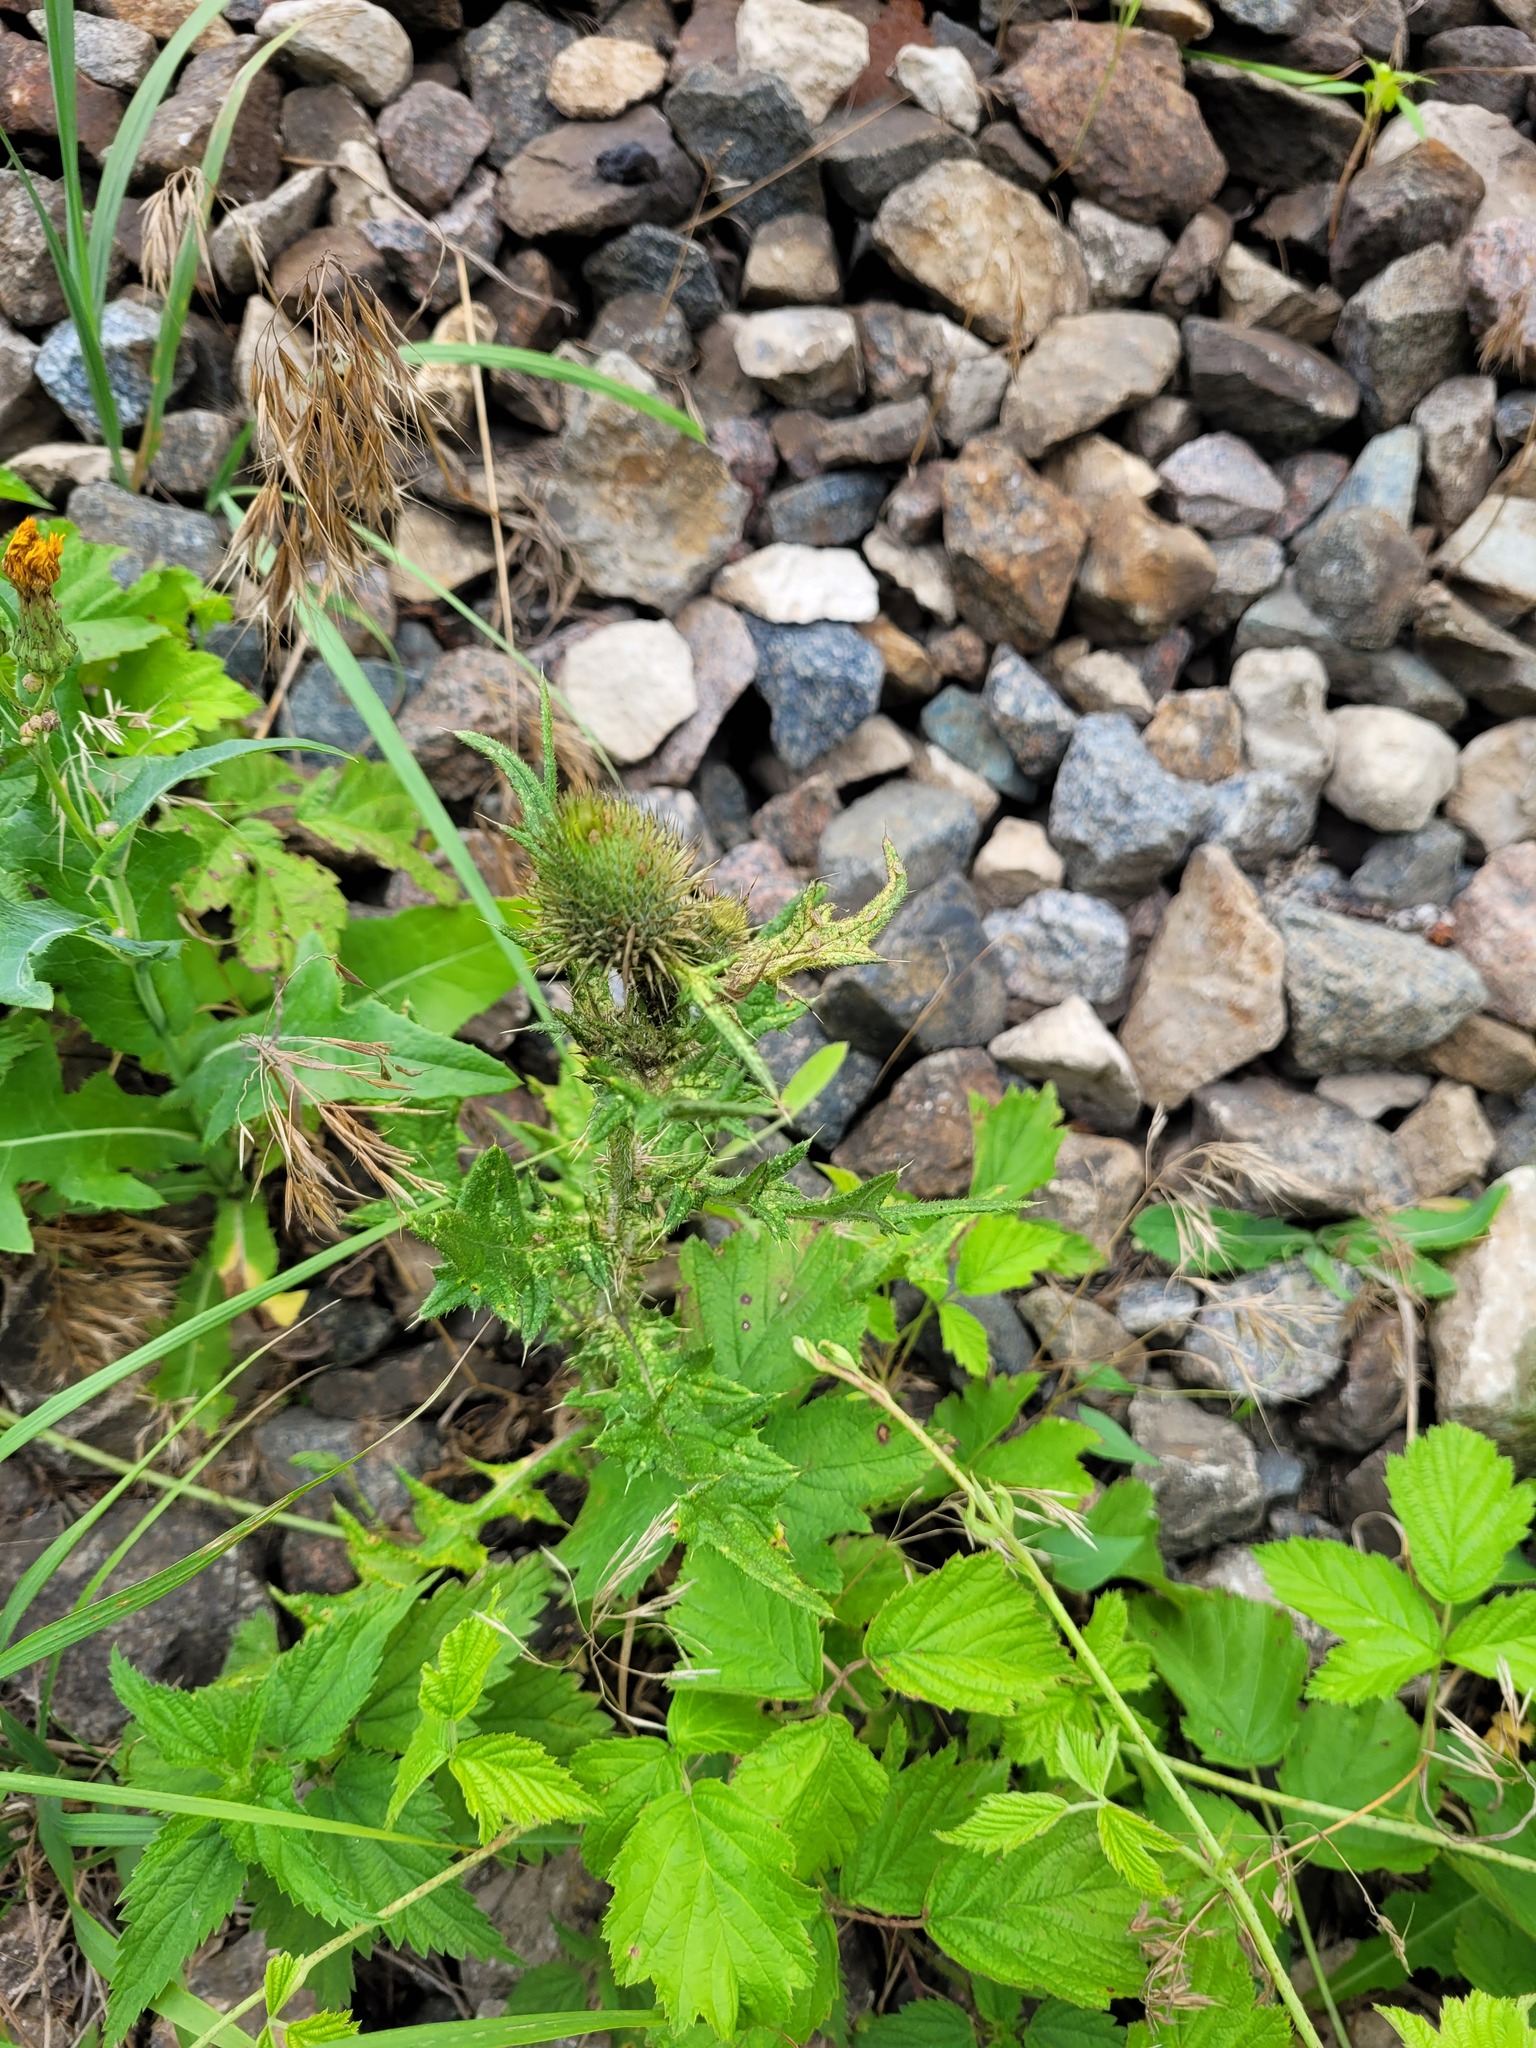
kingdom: Plantae
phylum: Tracheophyta
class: Magnoliopsida
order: Asterales
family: Asteraceae
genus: Cirsium
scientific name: Cirsium vulgare
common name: Bull thistle
